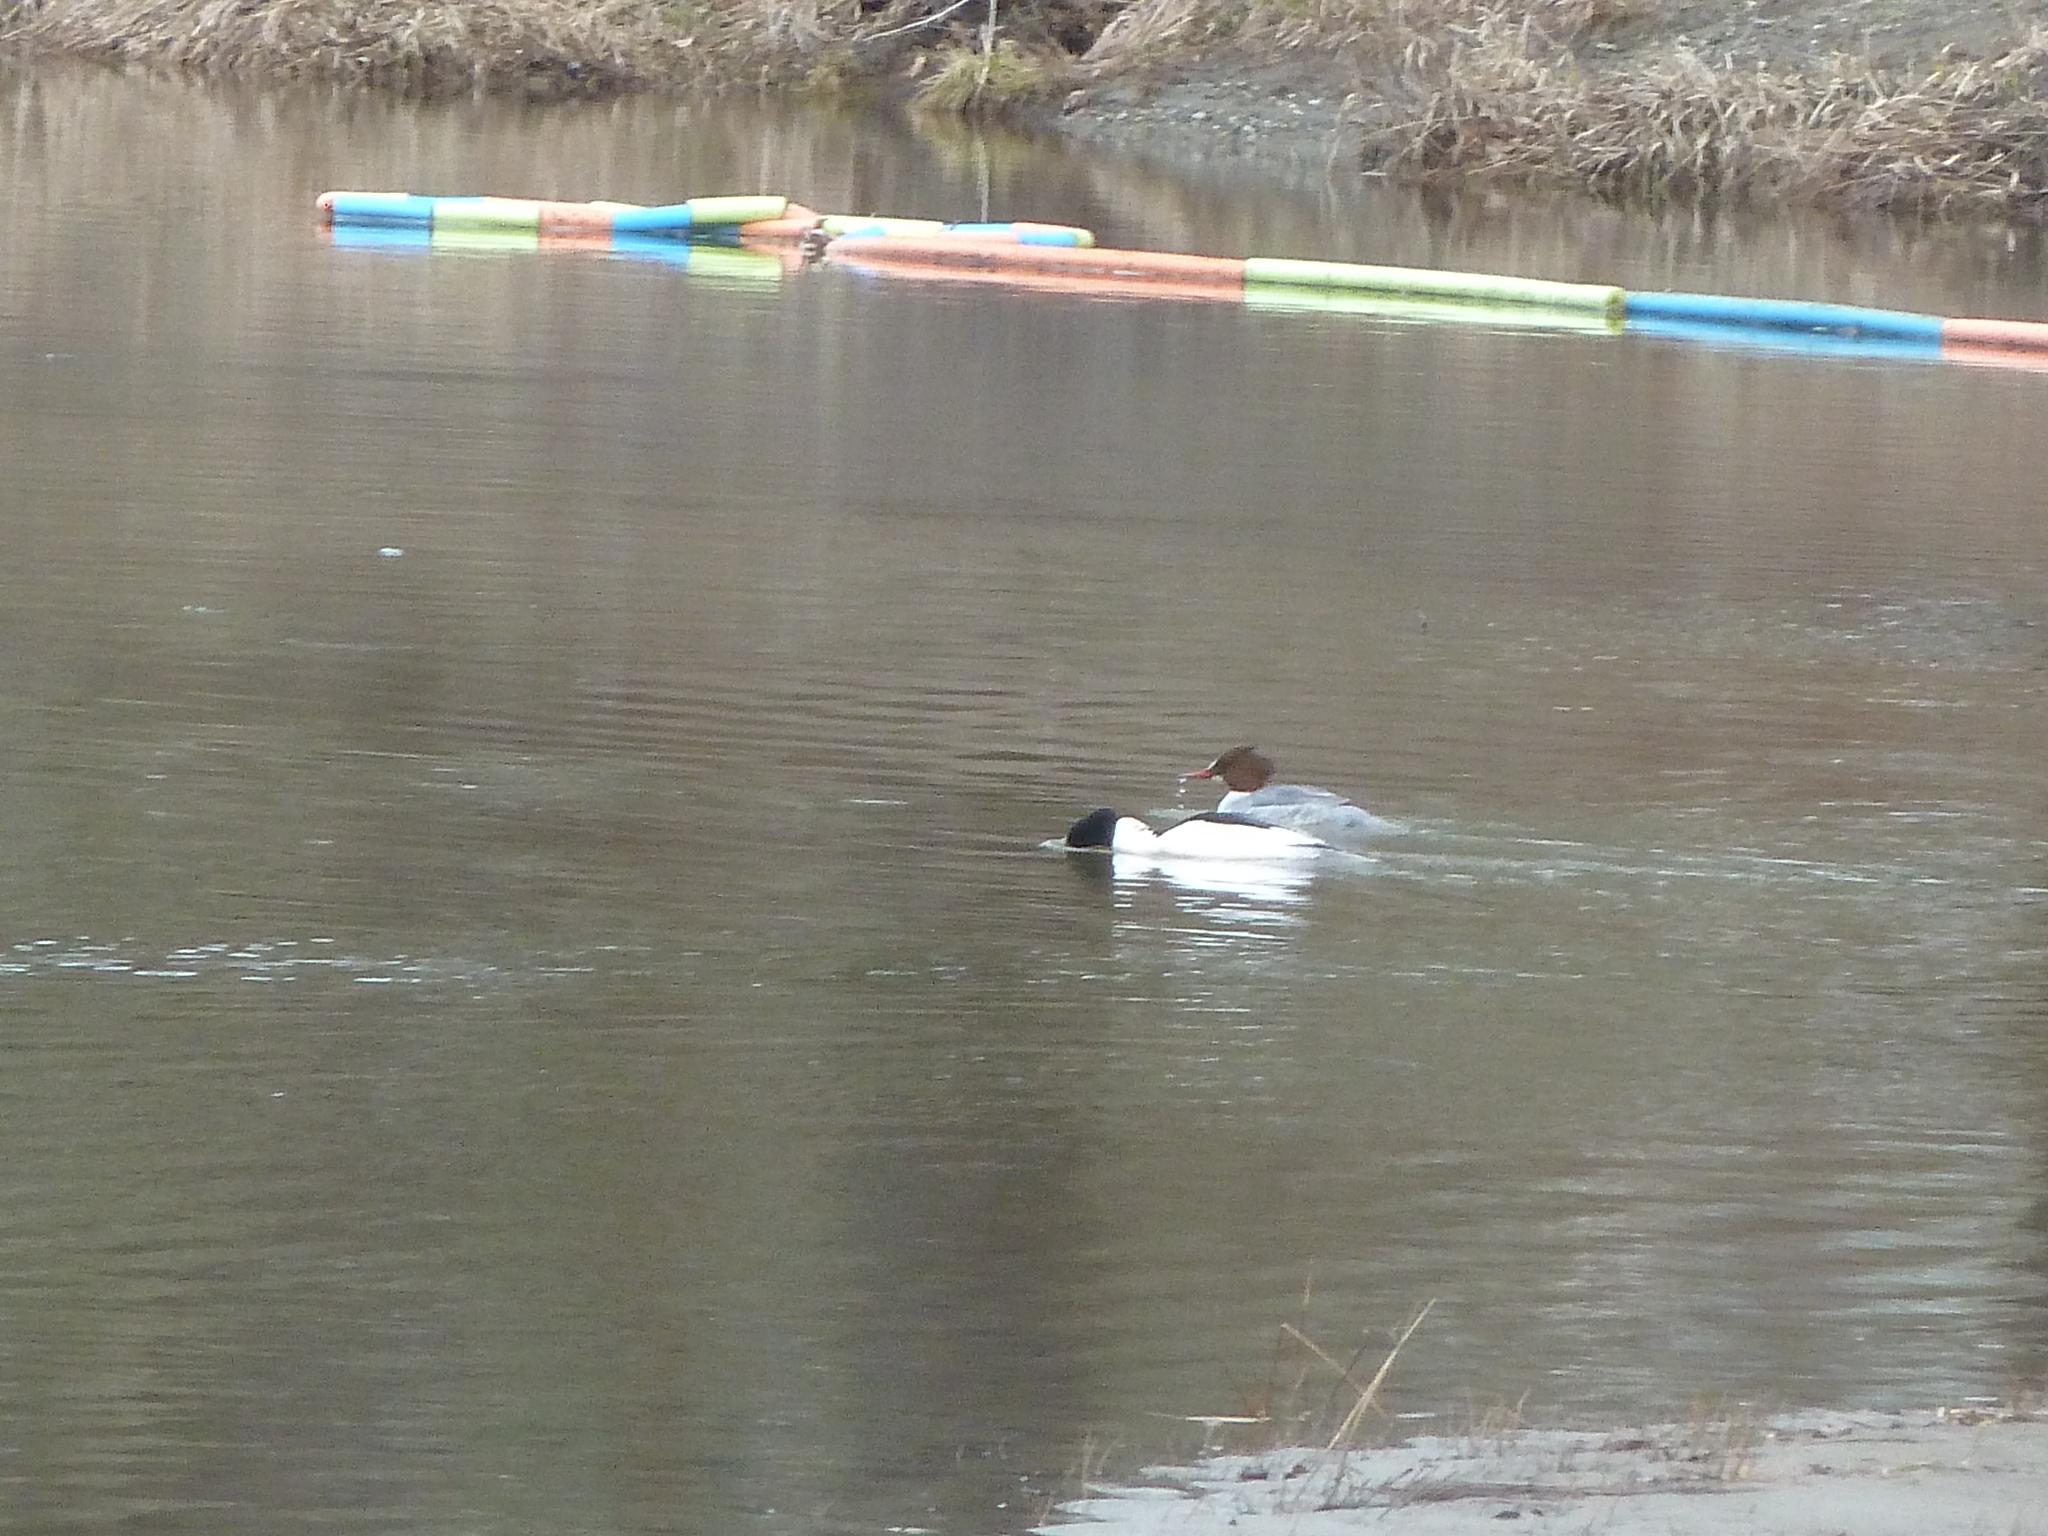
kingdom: Animalia
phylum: Chordata
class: Aves
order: Anseriformes
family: Anatidae
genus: Mergus
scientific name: Mergus merganser
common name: Common merganser
